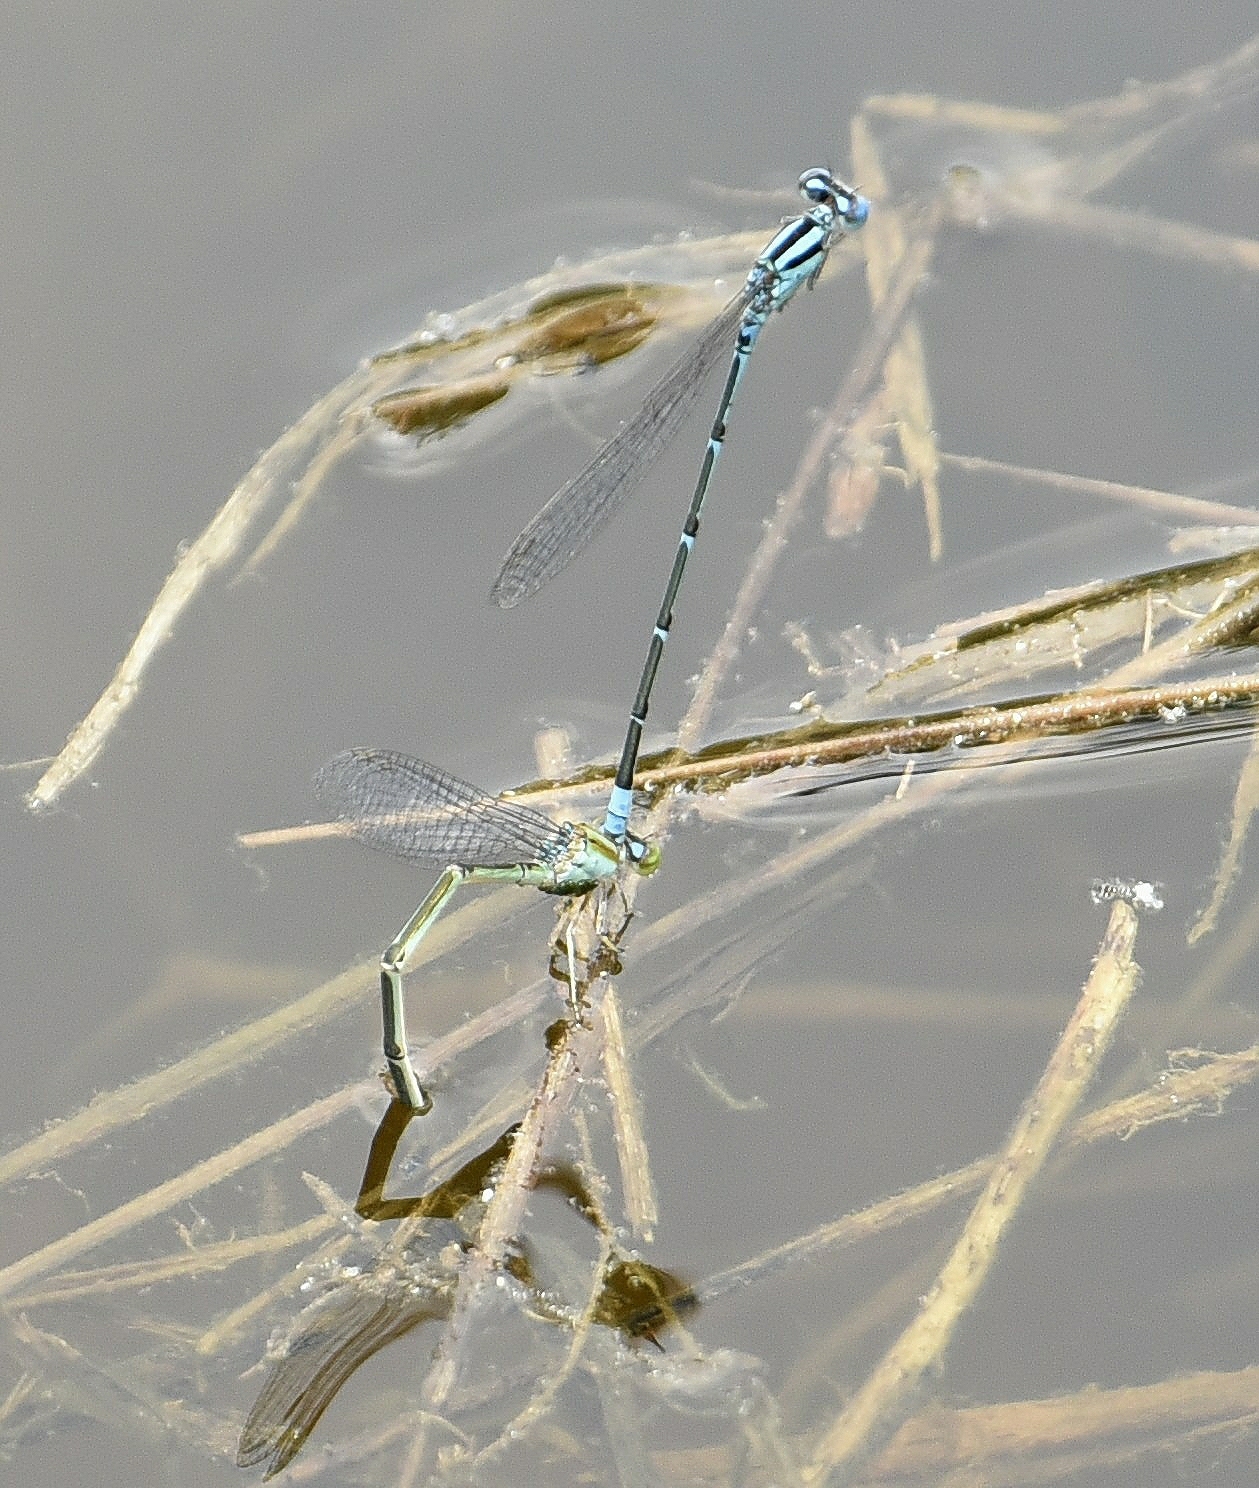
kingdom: Animalia
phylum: Arthropoda
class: Insecta
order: Odonata
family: Coenagrionidae
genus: Pseudagrion
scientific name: Pseudagrion malabaricum
